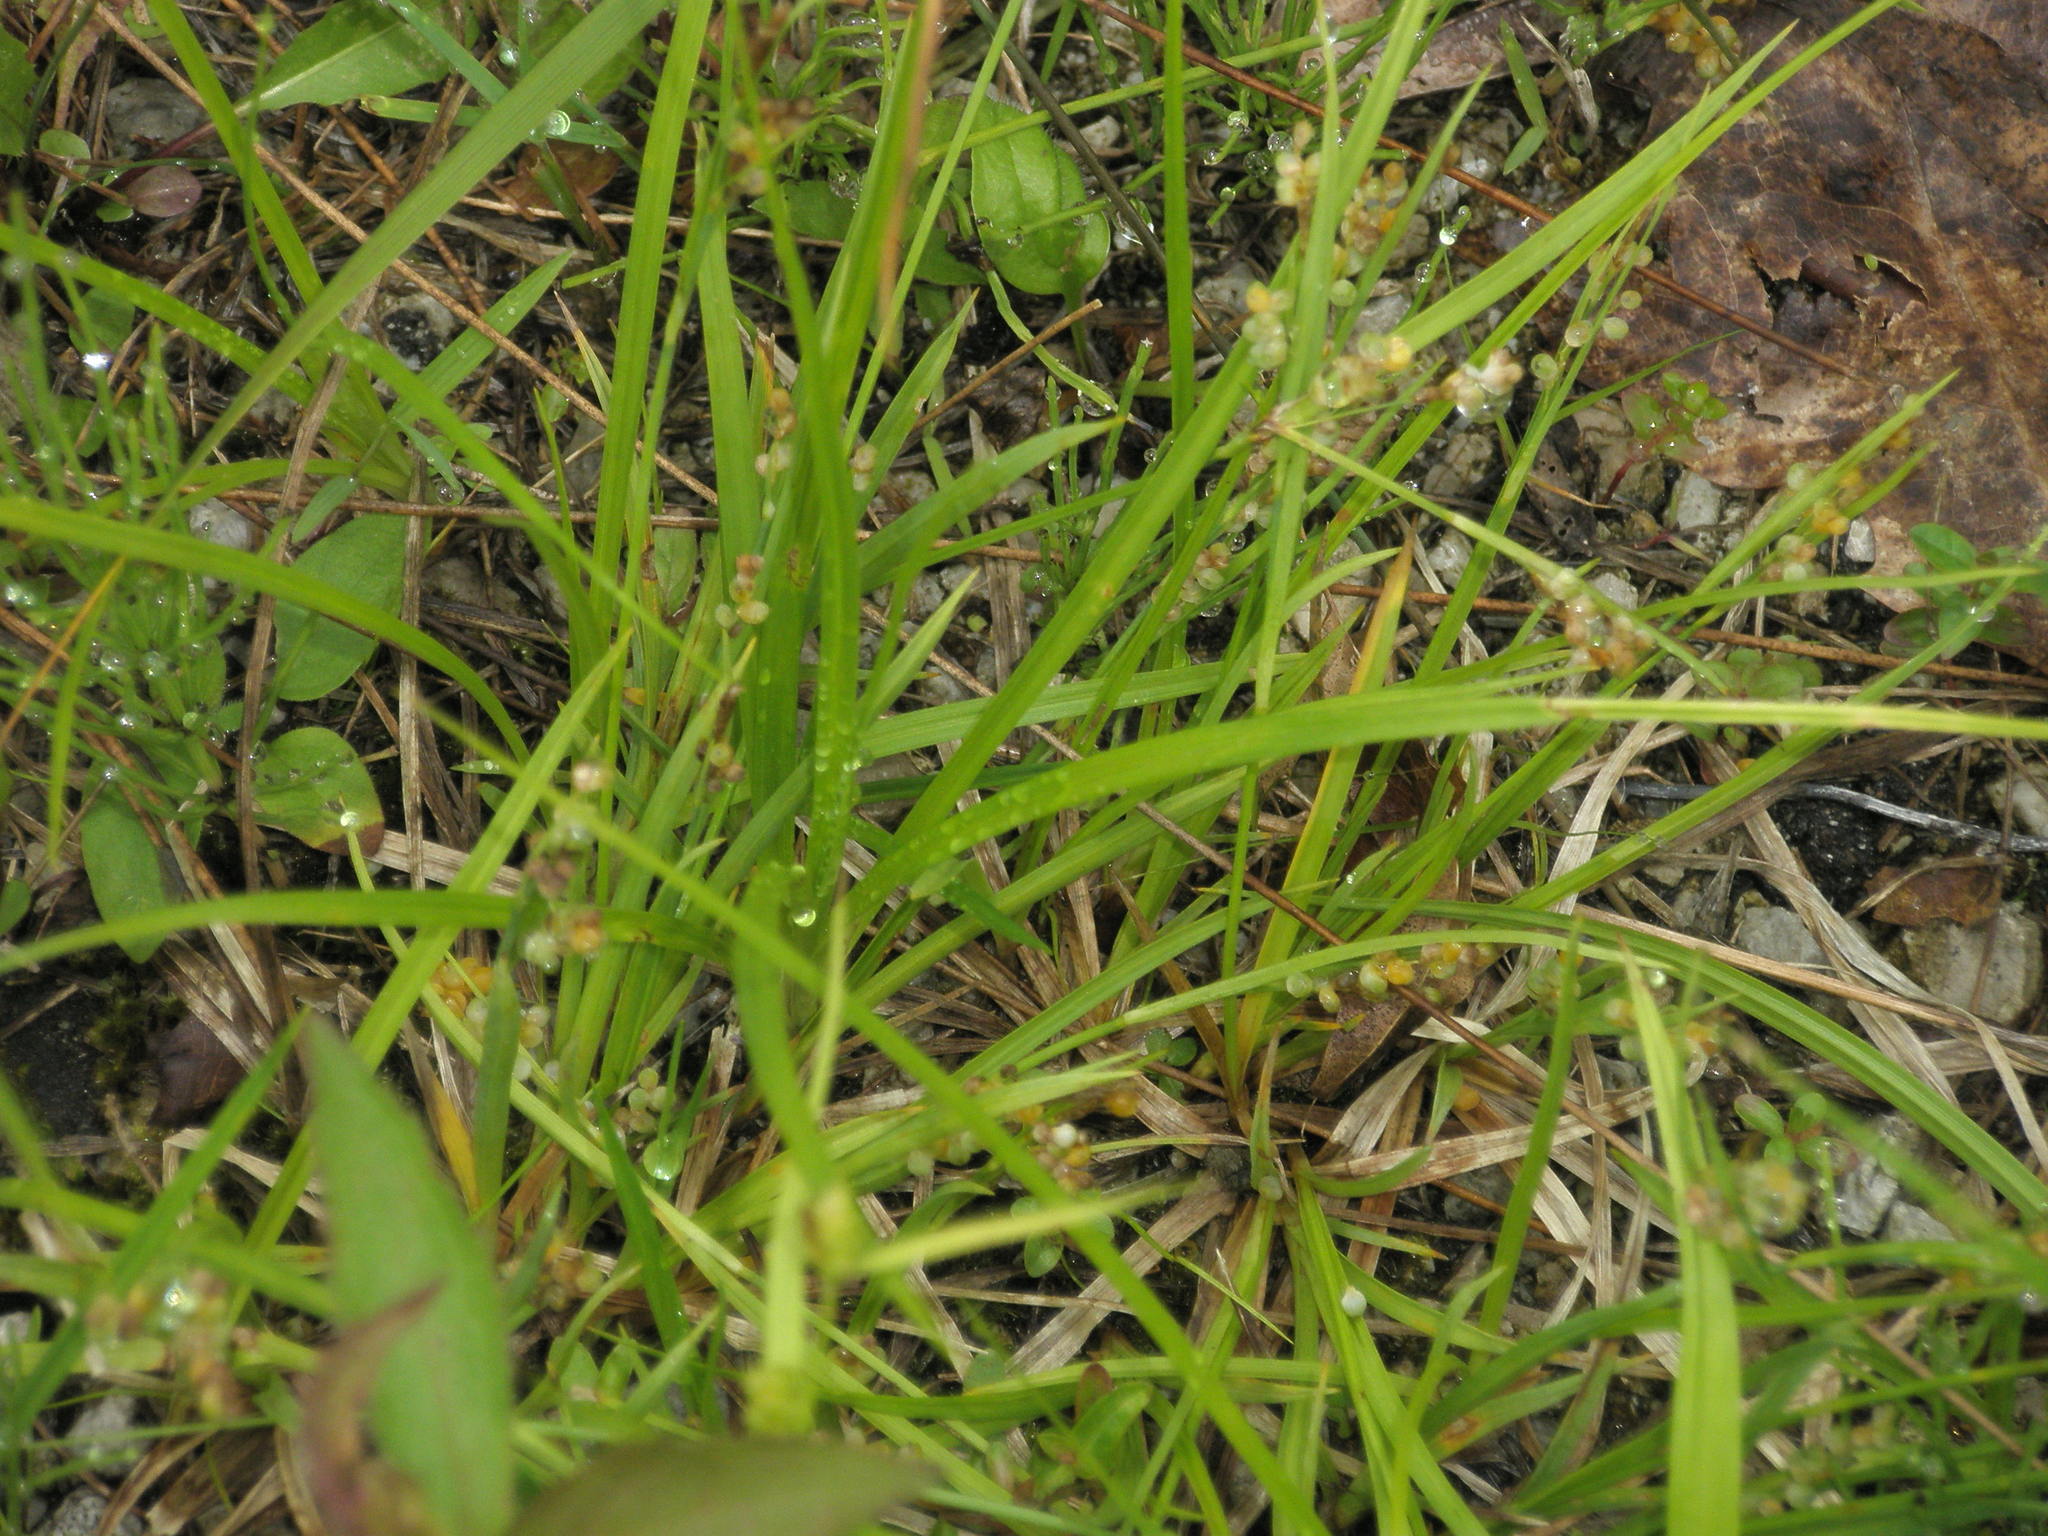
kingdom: Plantae
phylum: Tracheophyta
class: Liliopsida
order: Poales
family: Cyperaceae
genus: Carex
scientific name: Carex aurea
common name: Golden sedge
